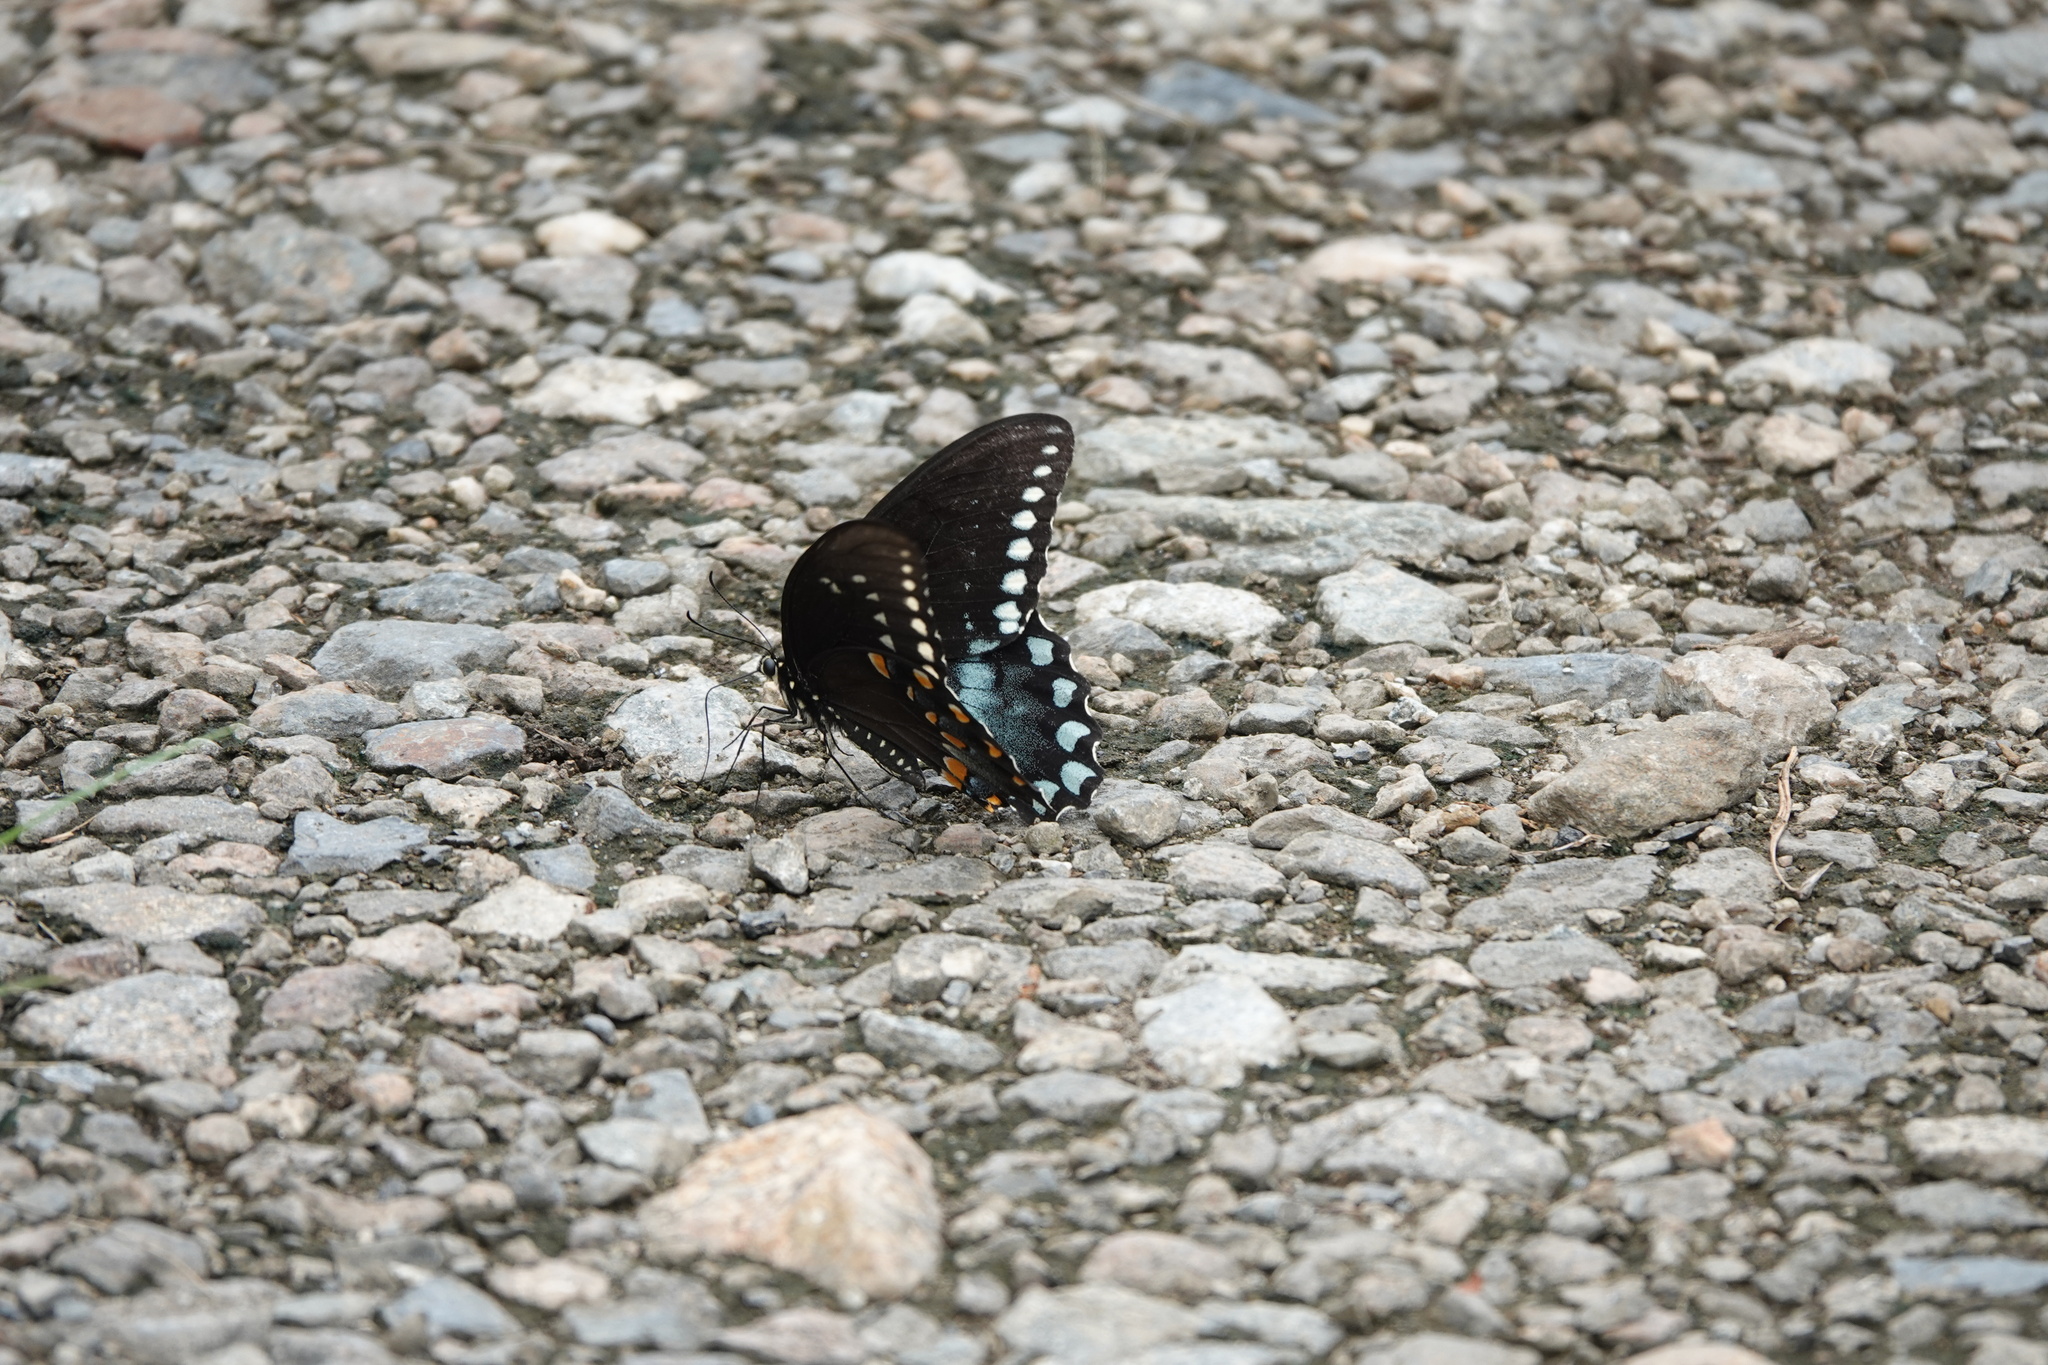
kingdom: Animalia
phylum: Arthropoda
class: Insecta
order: Lepidoptera
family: Papilionidae
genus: Papilio
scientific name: Papilio troilus
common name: Spicebush swallowtail
